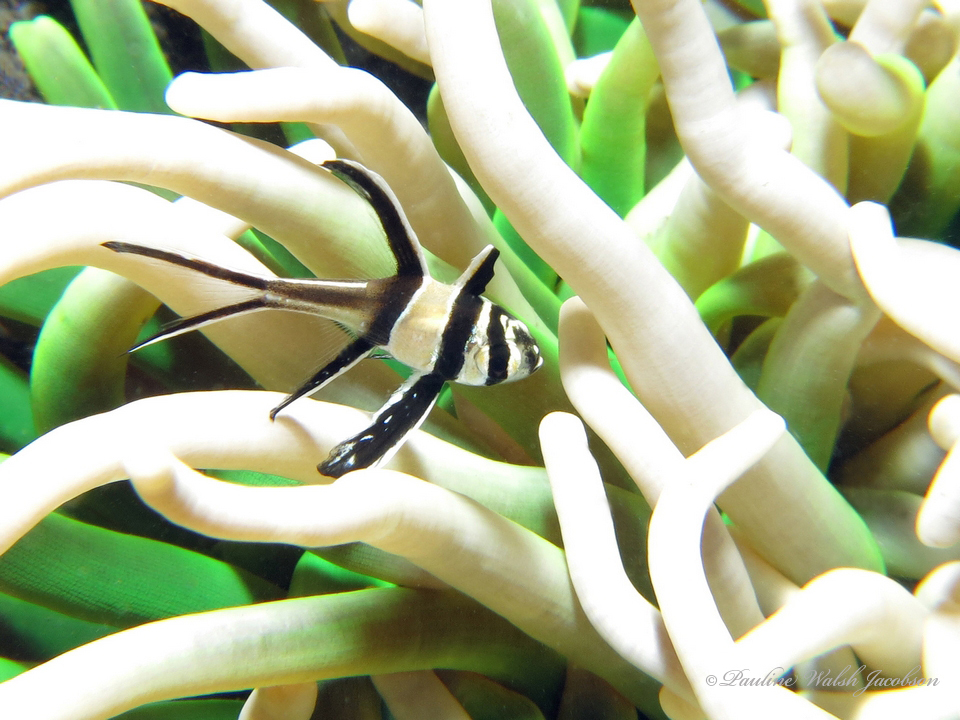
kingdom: Animalia
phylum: Chordata
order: Perciformes
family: Apogonidae
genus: Pterapogon
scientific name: Pterapogon kauderni
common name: Banggai cardinalfish
